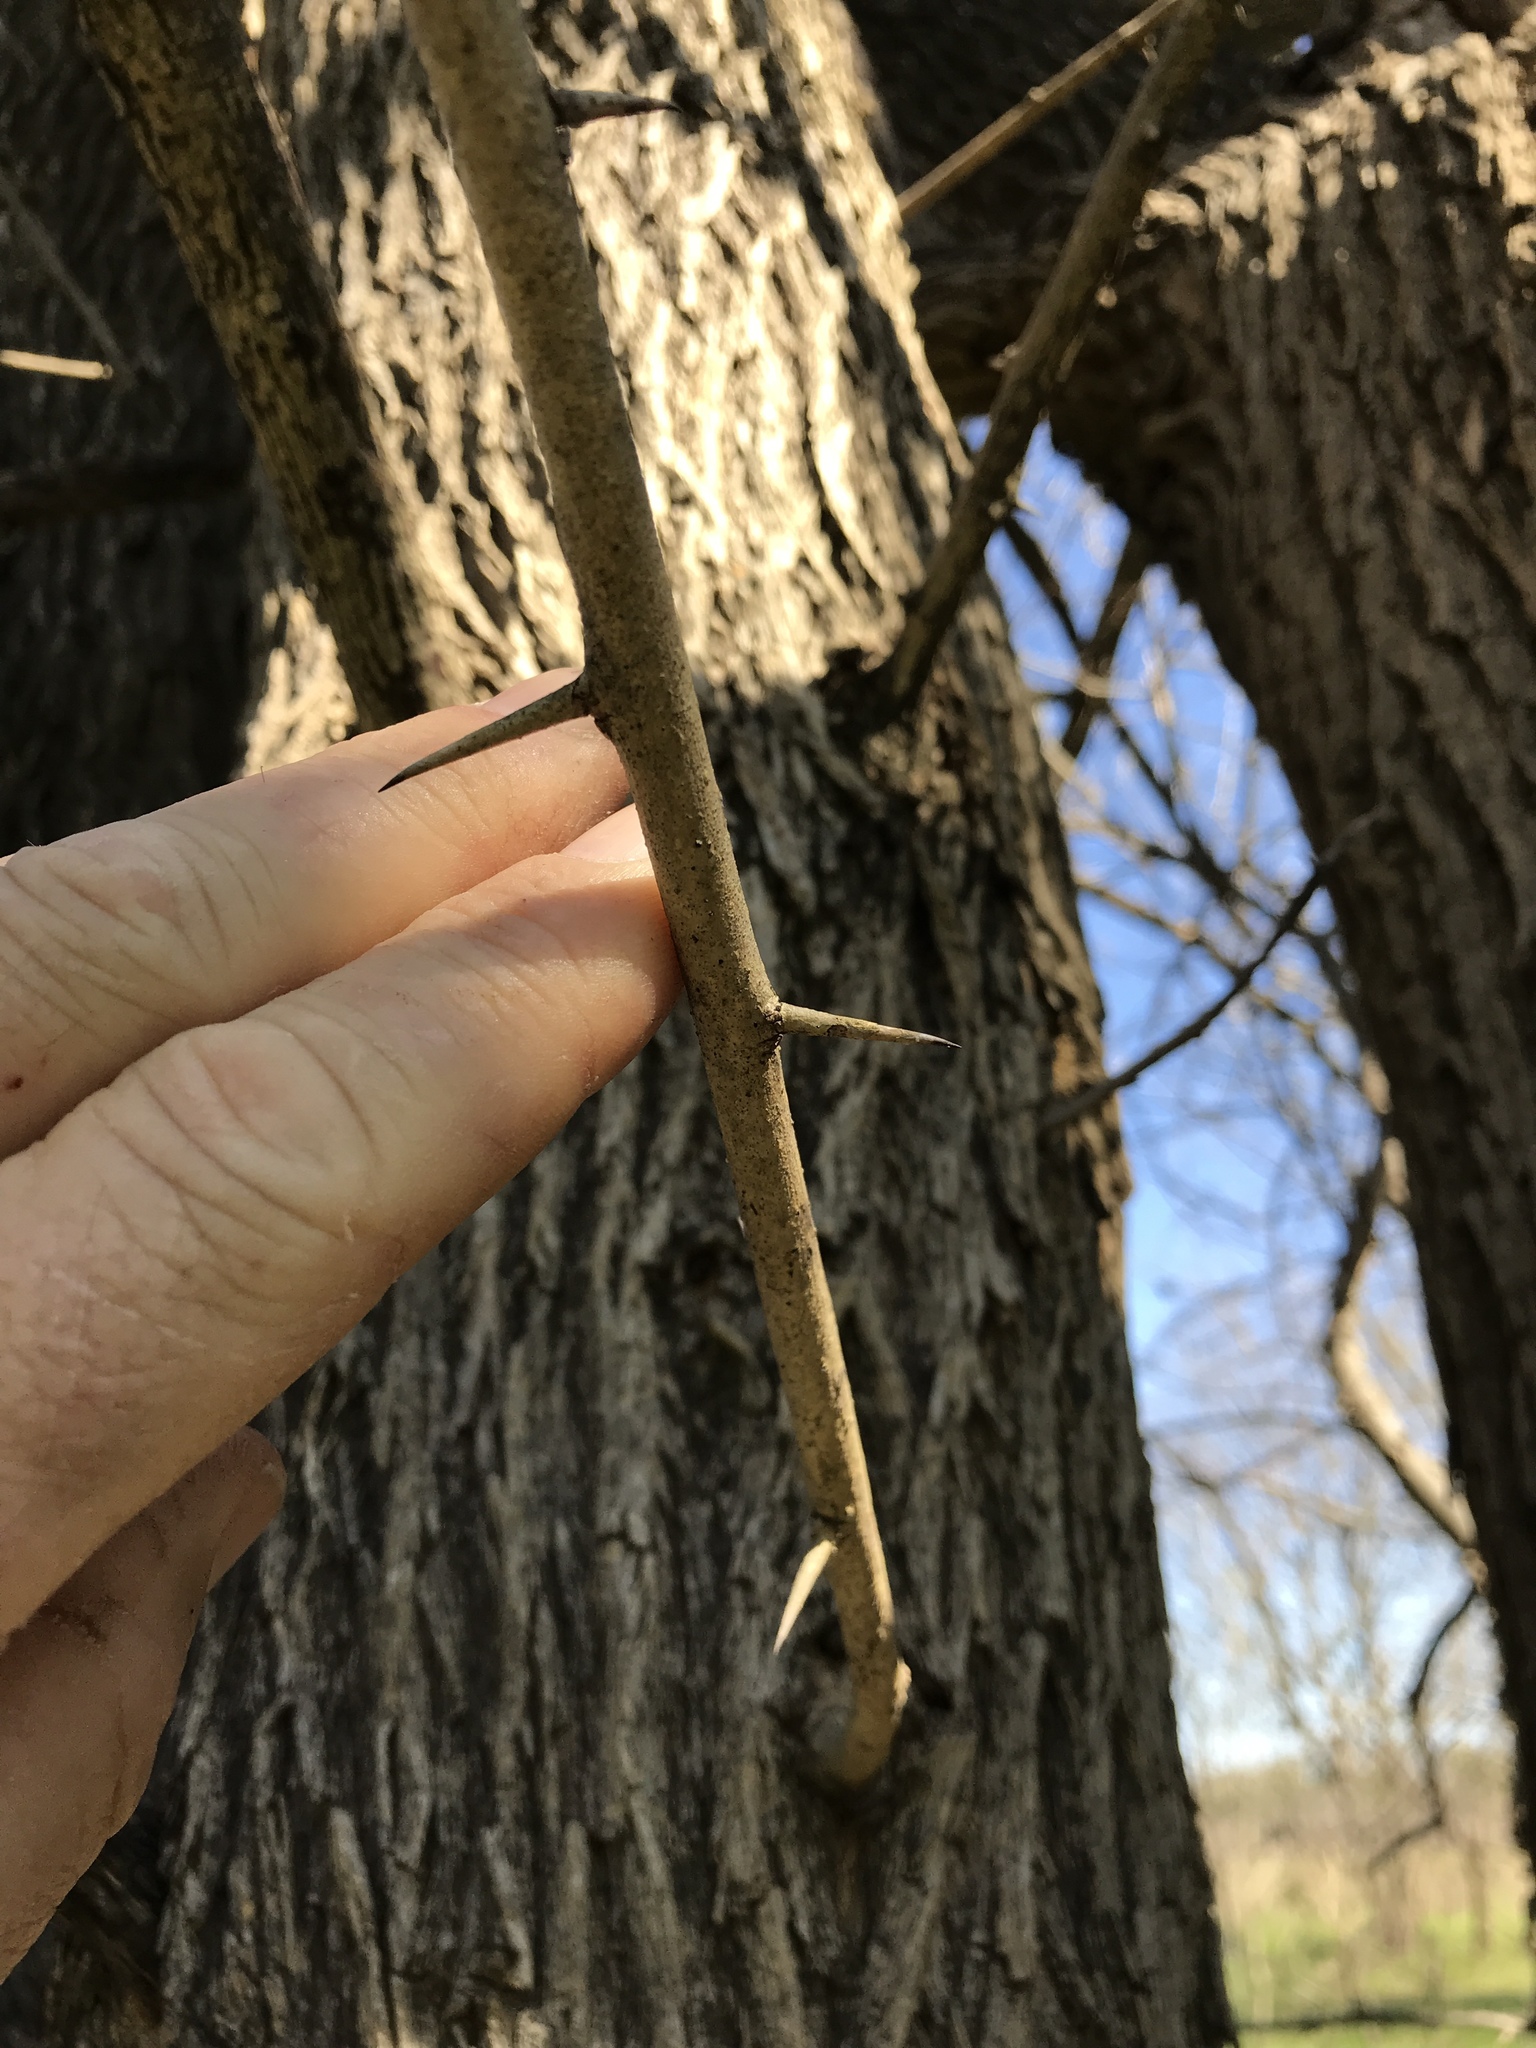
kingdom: Plantae
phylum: Tracheophyta
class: Magnoliopsida
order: Rosales
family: Moraceae
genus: Maclura
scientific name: Maclura pomifera
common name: Osage-orange
